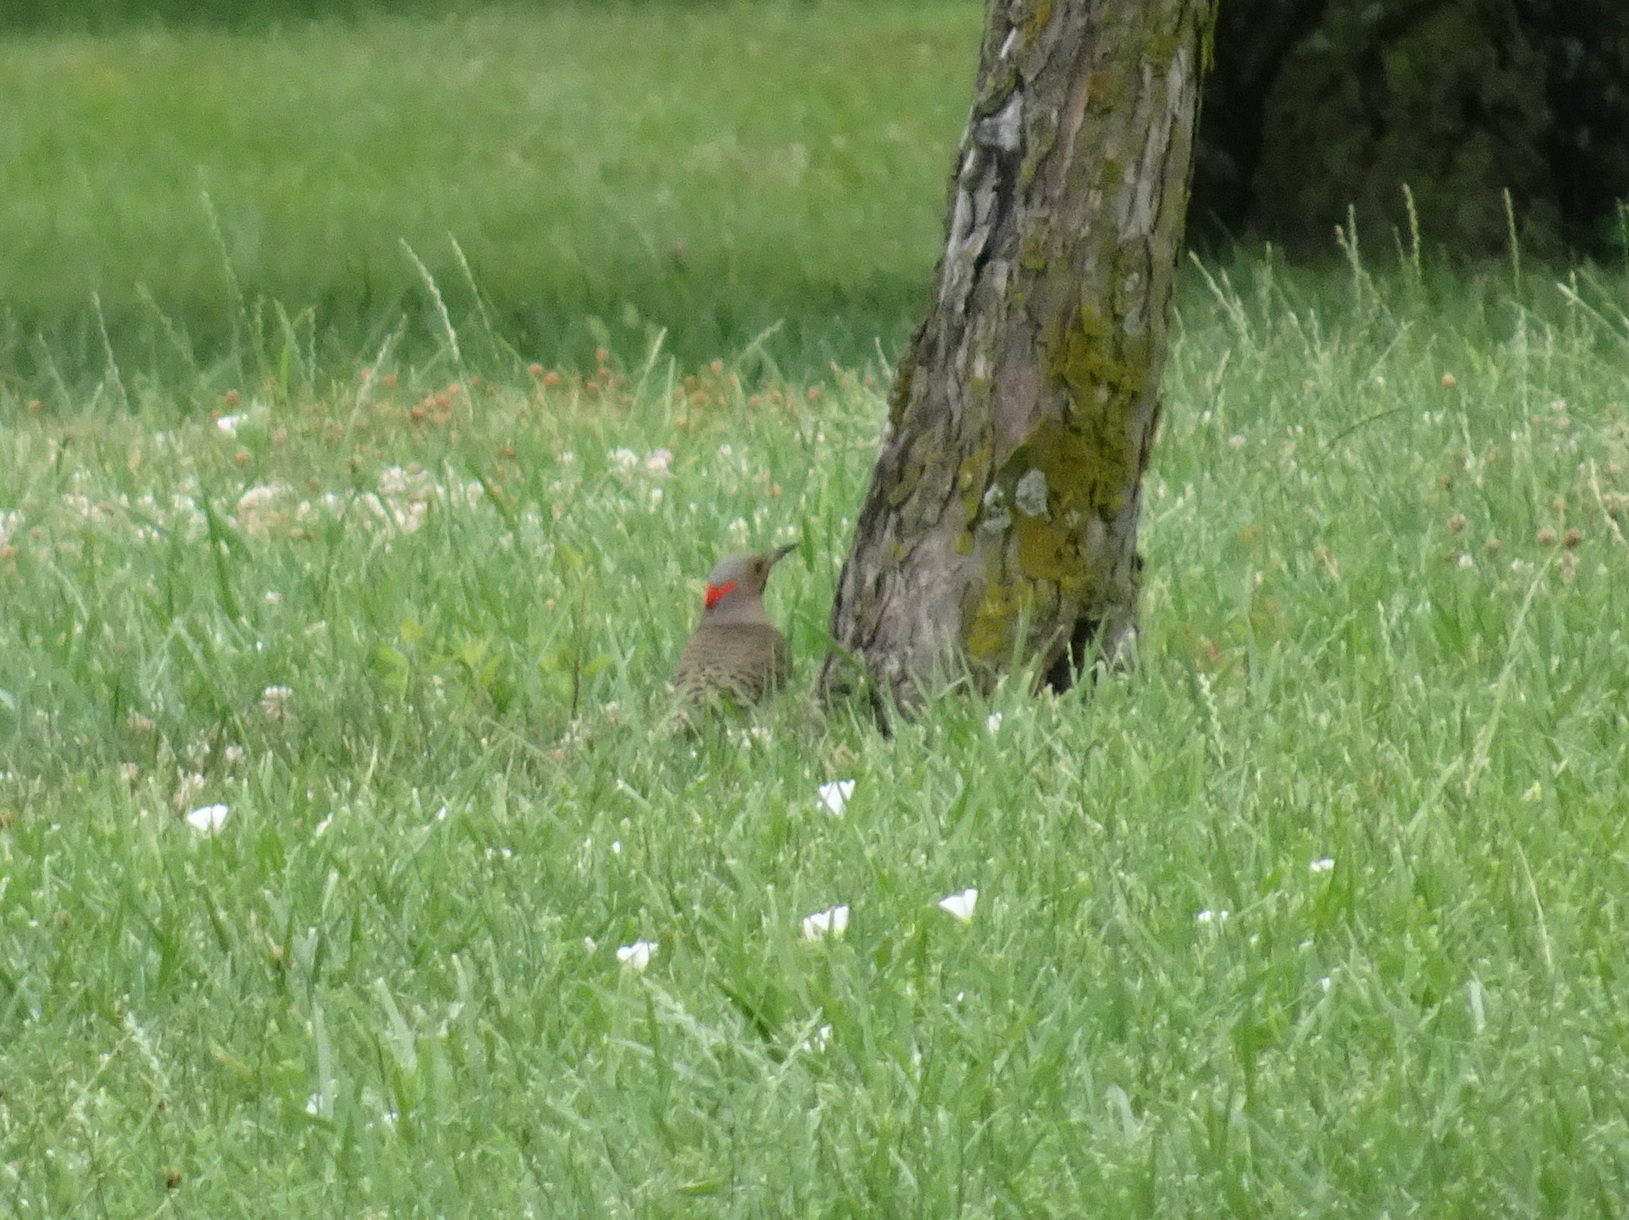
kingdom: Animalia
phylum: Chordata
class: Aves
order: Piciformes
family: Picidae
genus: Colaptes
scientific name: Colaptes auratus
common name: Northern flicker
